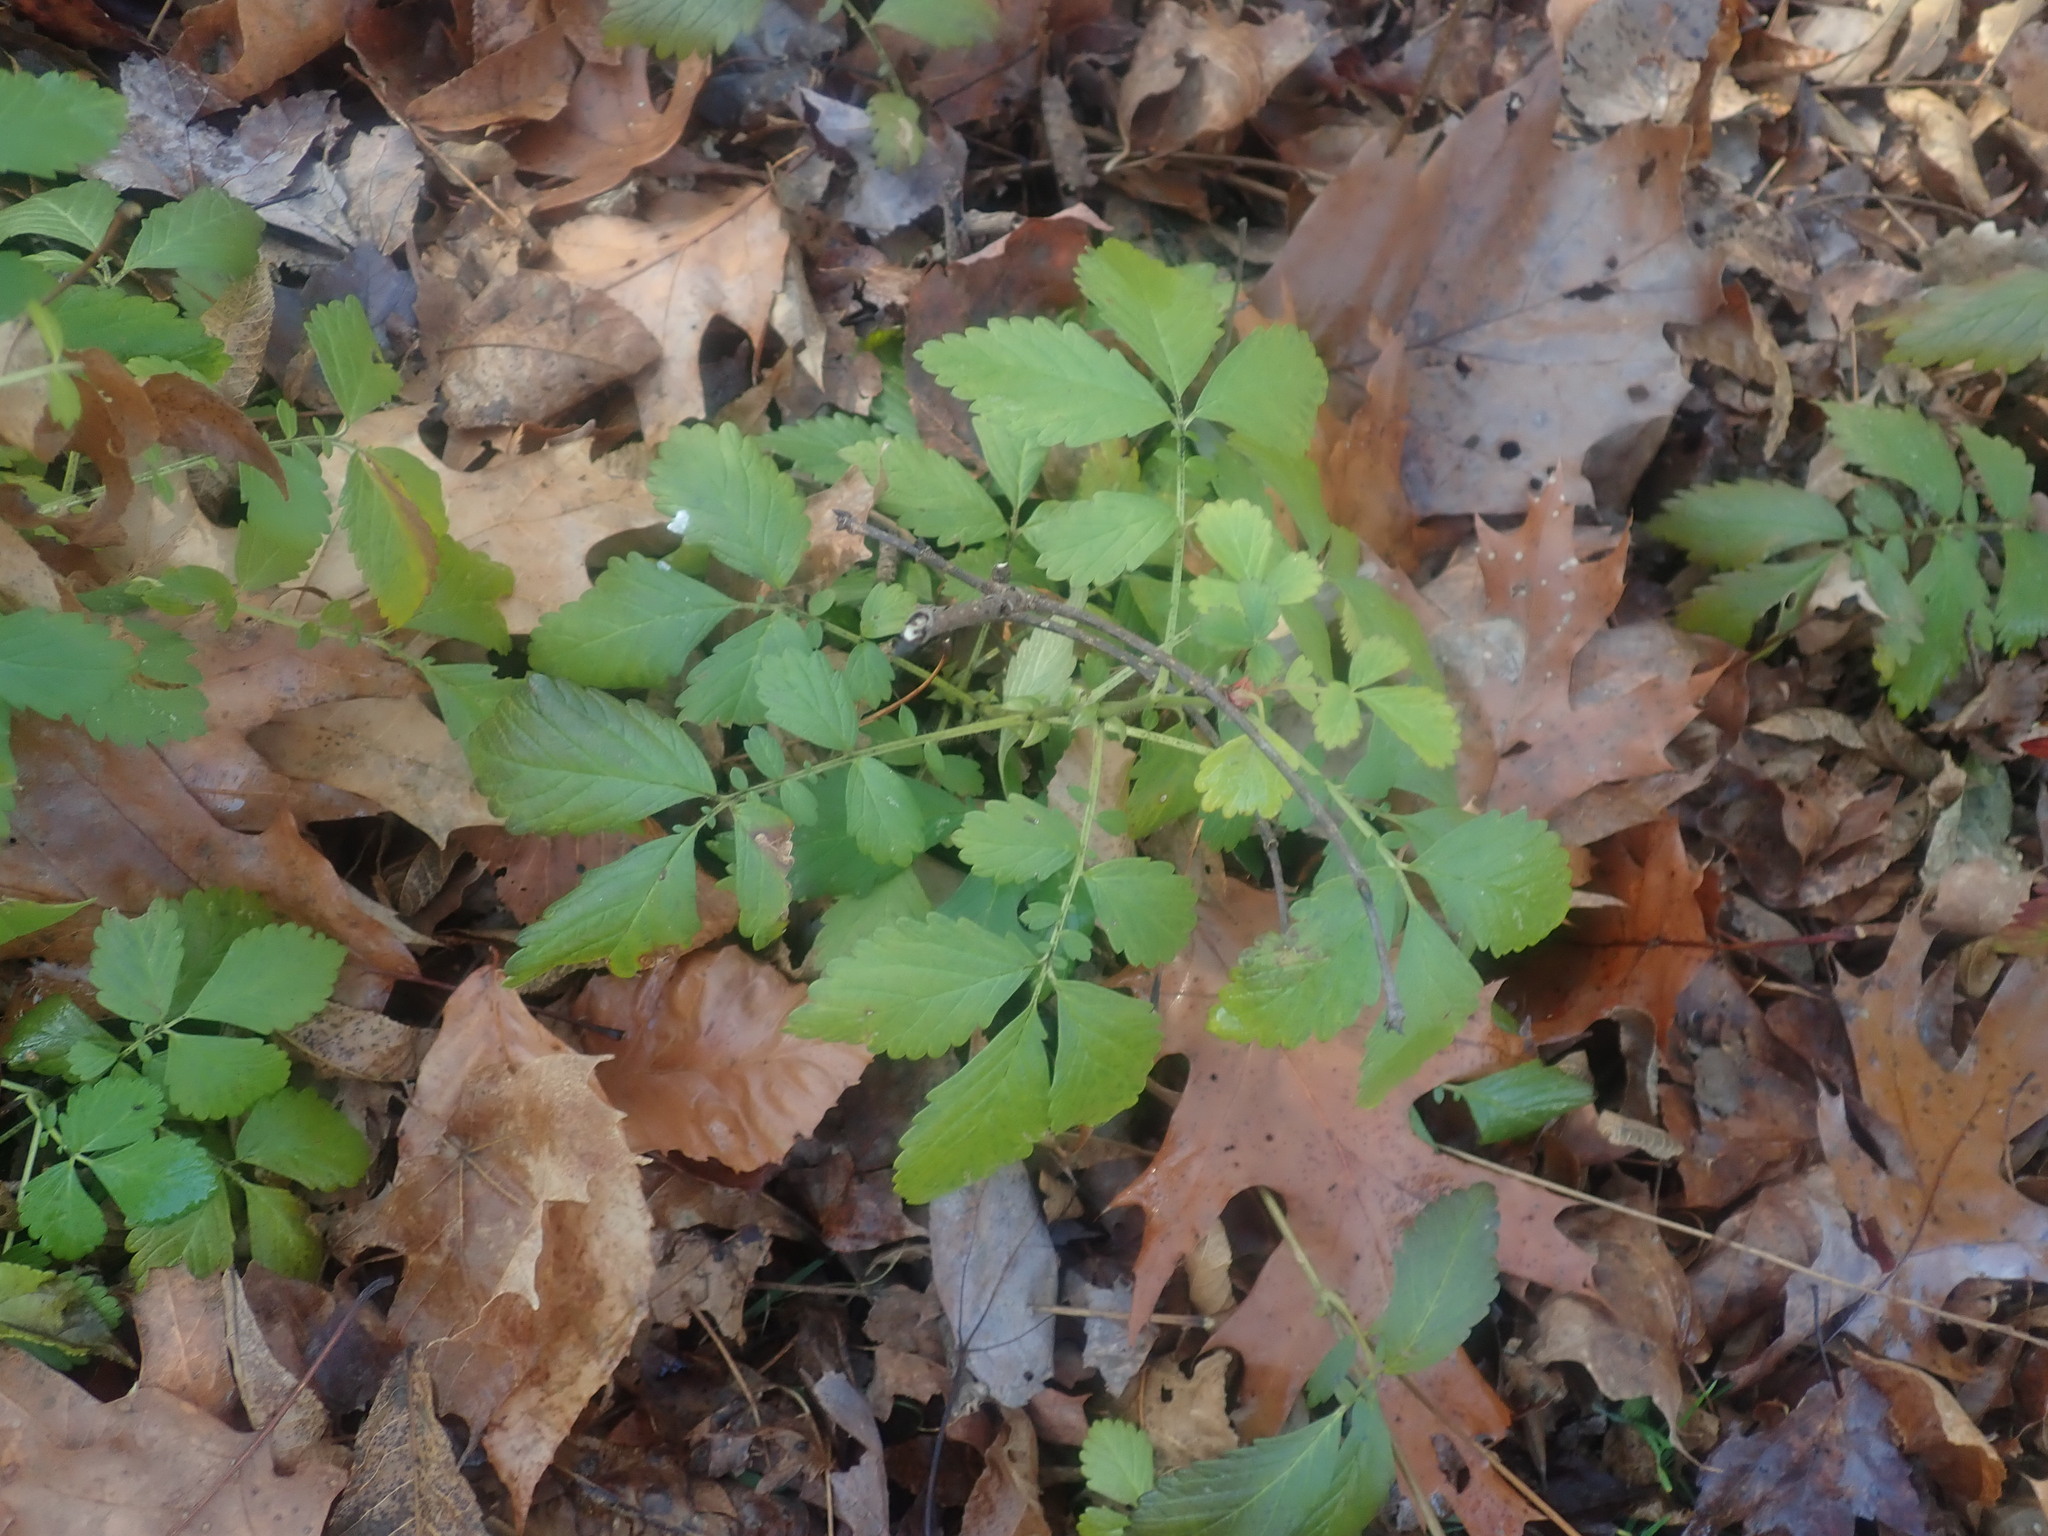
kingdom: Plantae
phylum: Tracheophyta
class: Magnoliopsida
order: Rosales
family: Rosaceae
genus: Agrimonia
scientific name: Agrimonia
